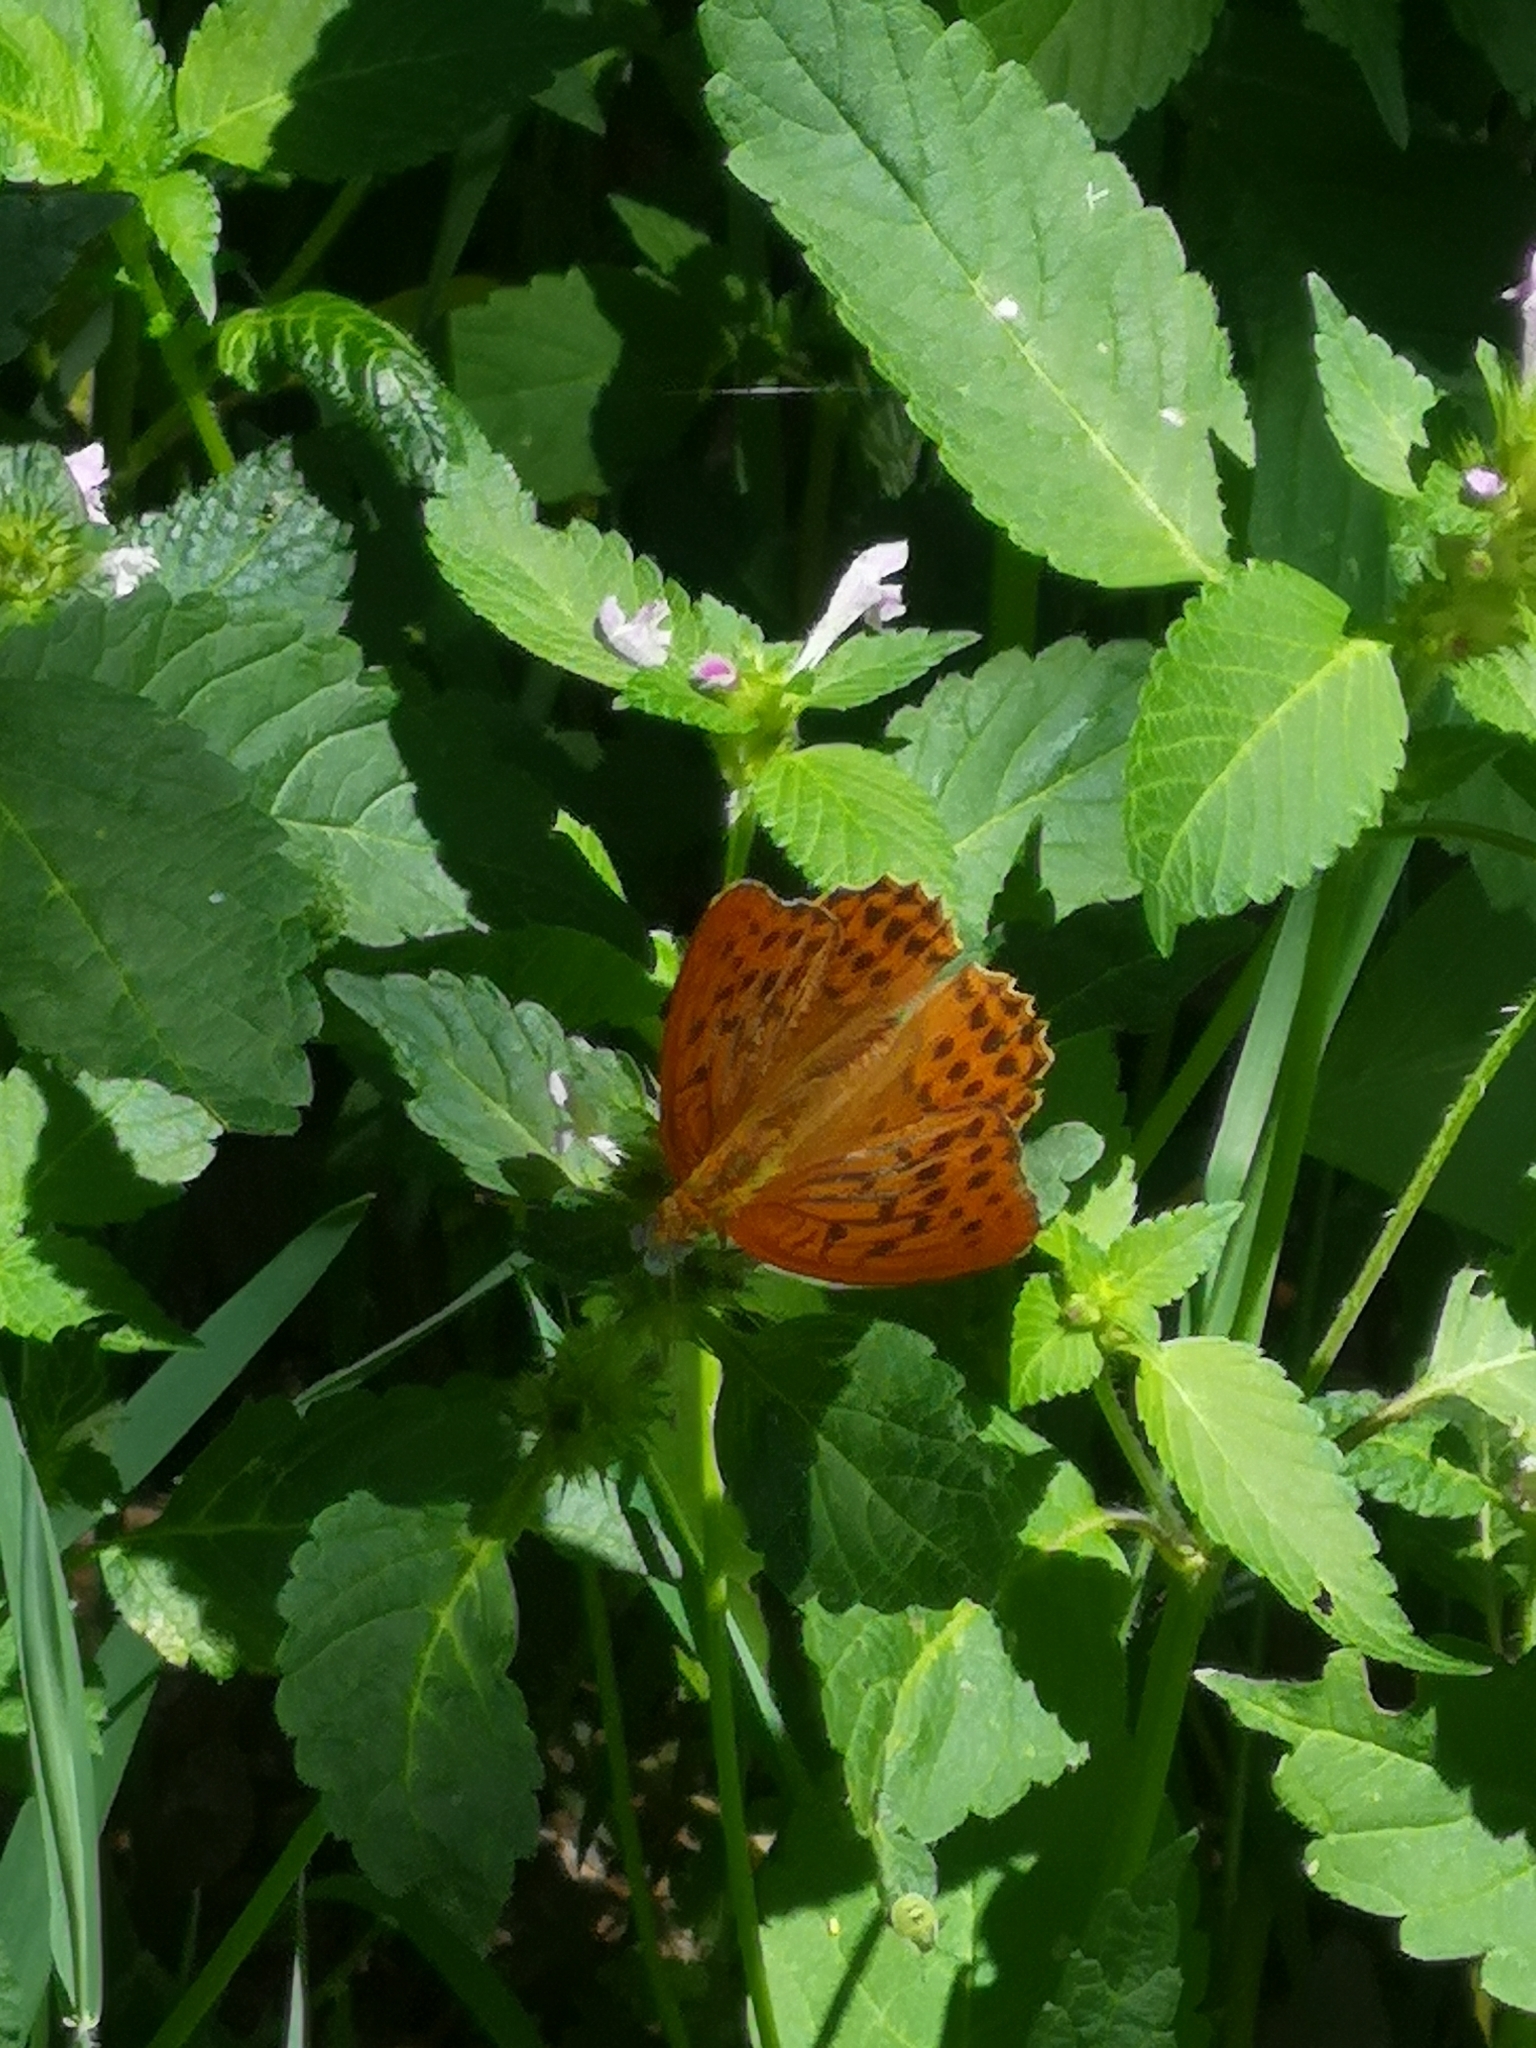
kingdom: Animalia
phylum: Arthropoda
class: Insecta
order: Lepidoptera
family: Nymphalidae
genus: Argynnis
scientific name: Argynnis paphia
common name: Silver-washed fritillary
